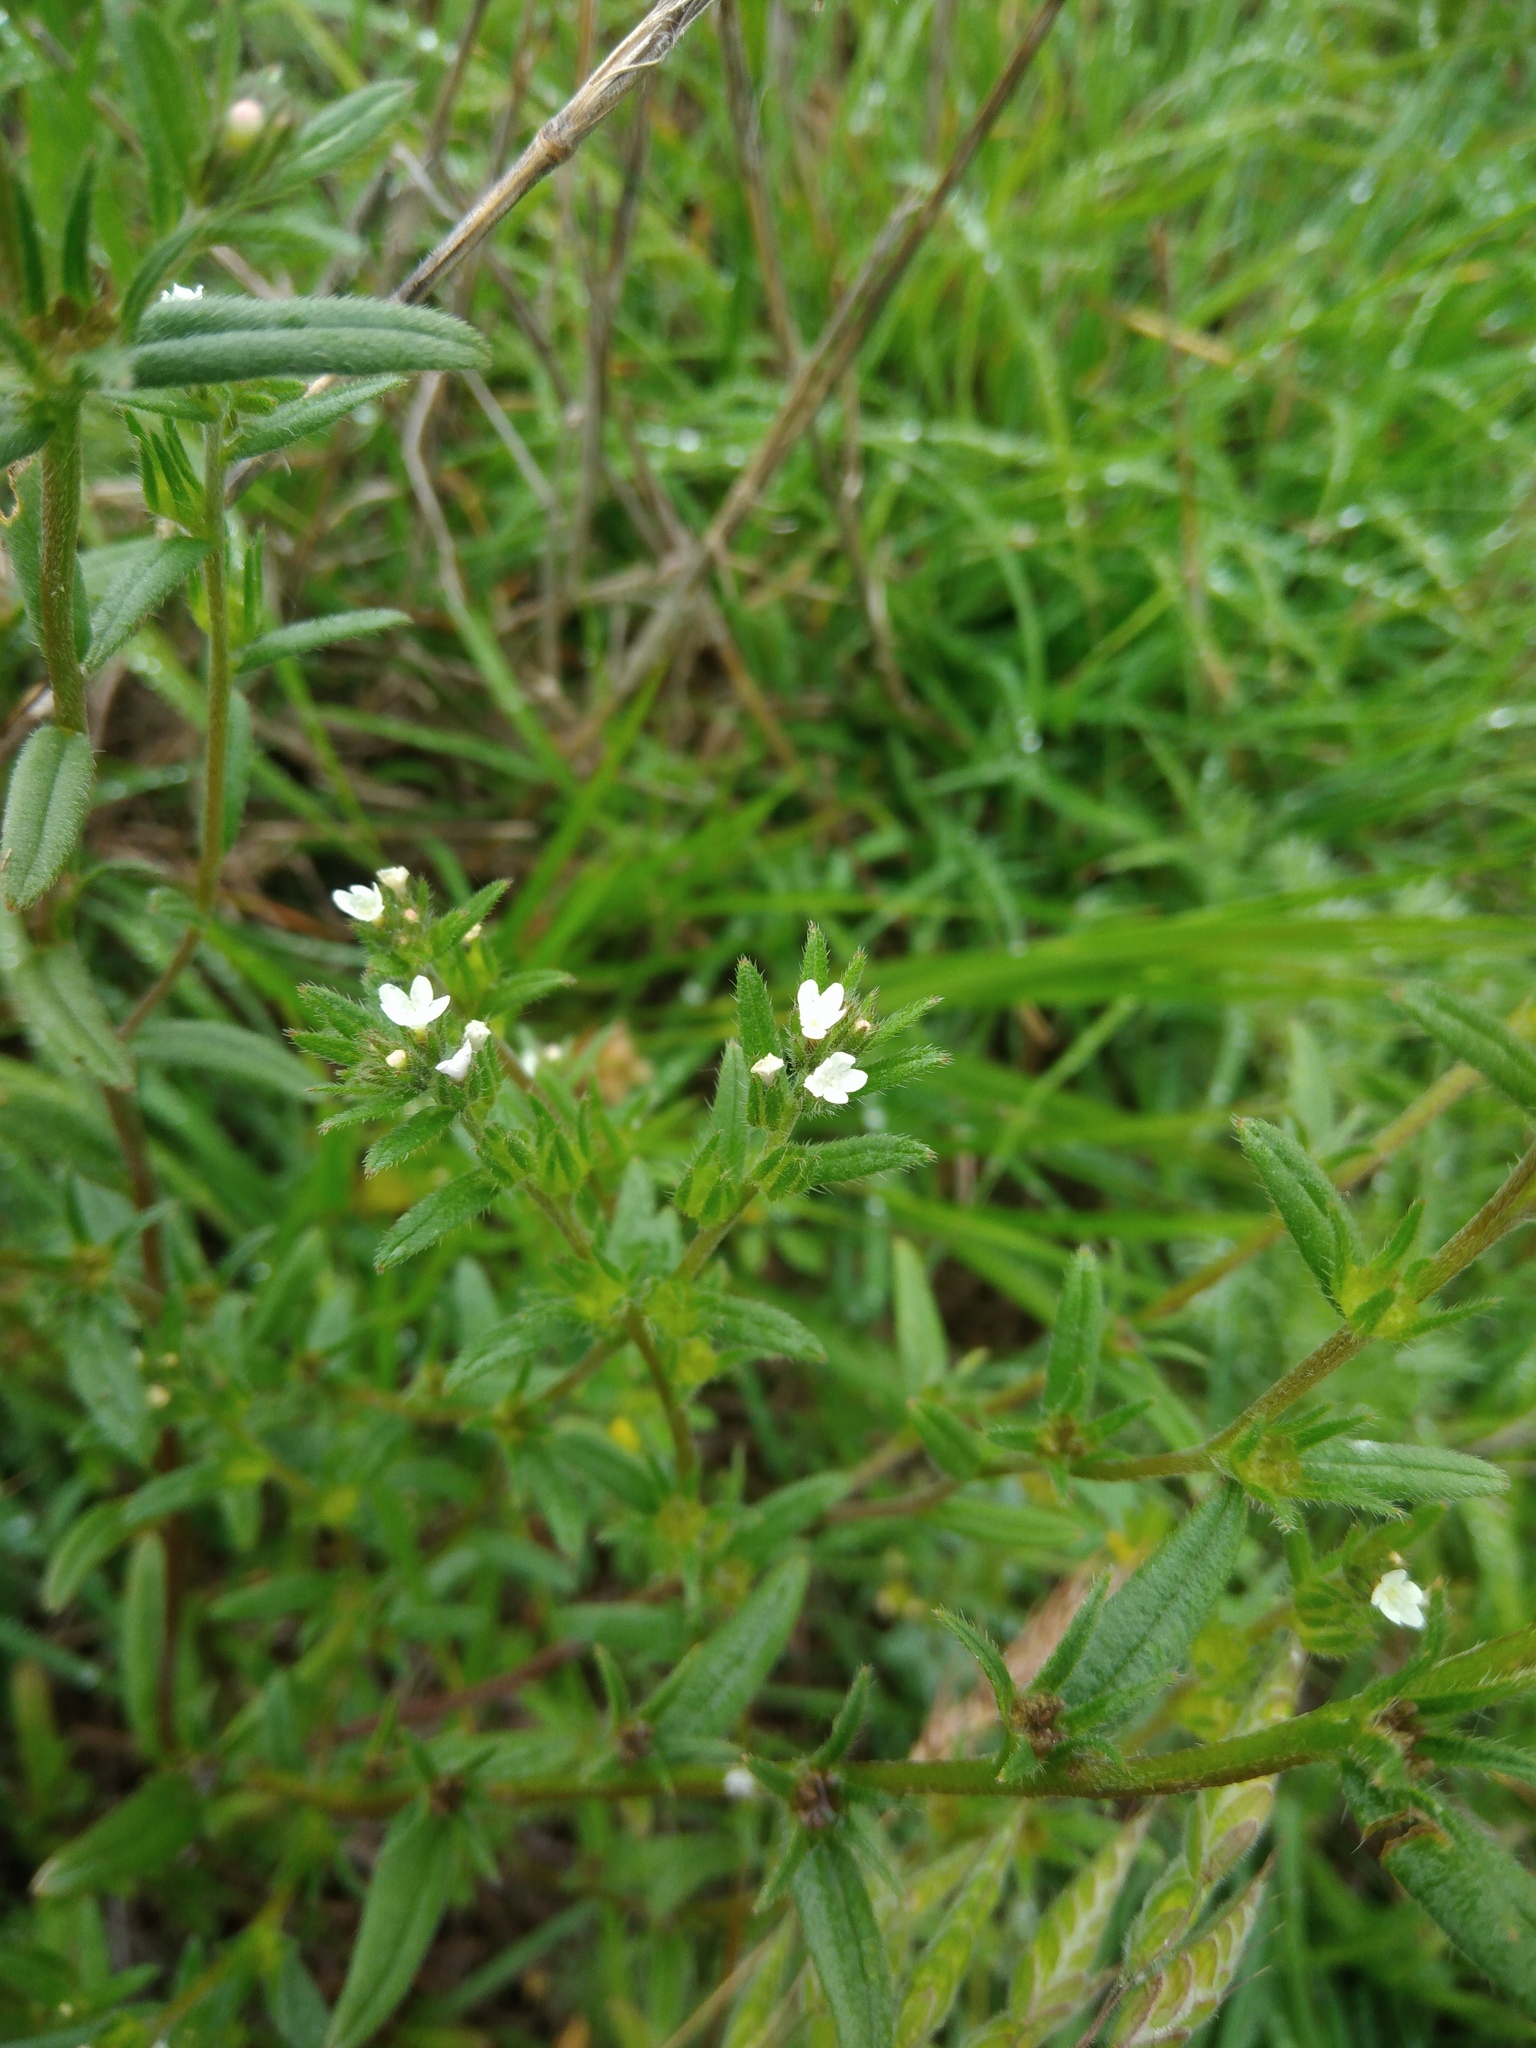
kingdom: Plantae
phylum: Tracheophyta
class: Magnoliopsida
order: Boraginales
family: Boraginaceae
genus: Buglossoides
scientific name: Buglossoides arvensis
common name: Corn gromwell
